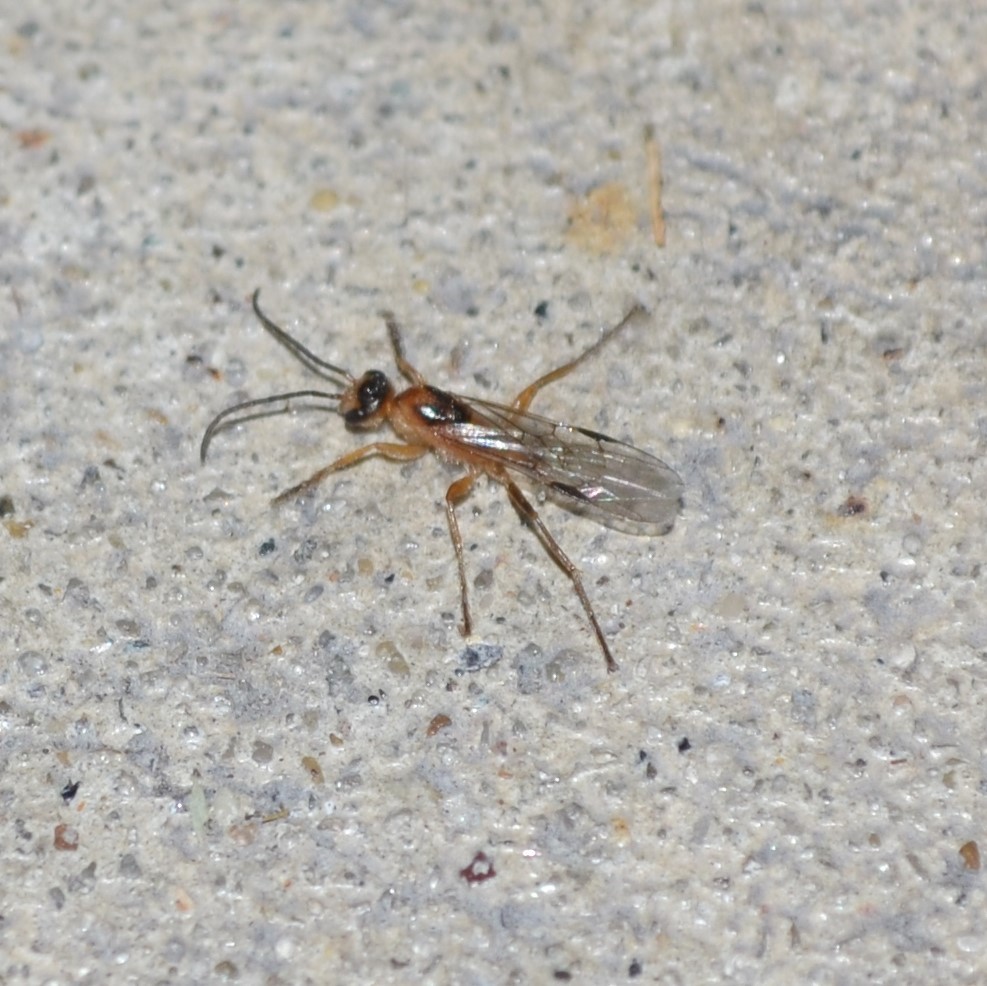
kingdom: Animalia
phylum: Arthropoda
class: Insecta
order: Hymenoptera
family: Formicidae
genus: Pseudomyrmex
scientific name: Pseudomyrmex gracilis
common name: Graceful twig ant
